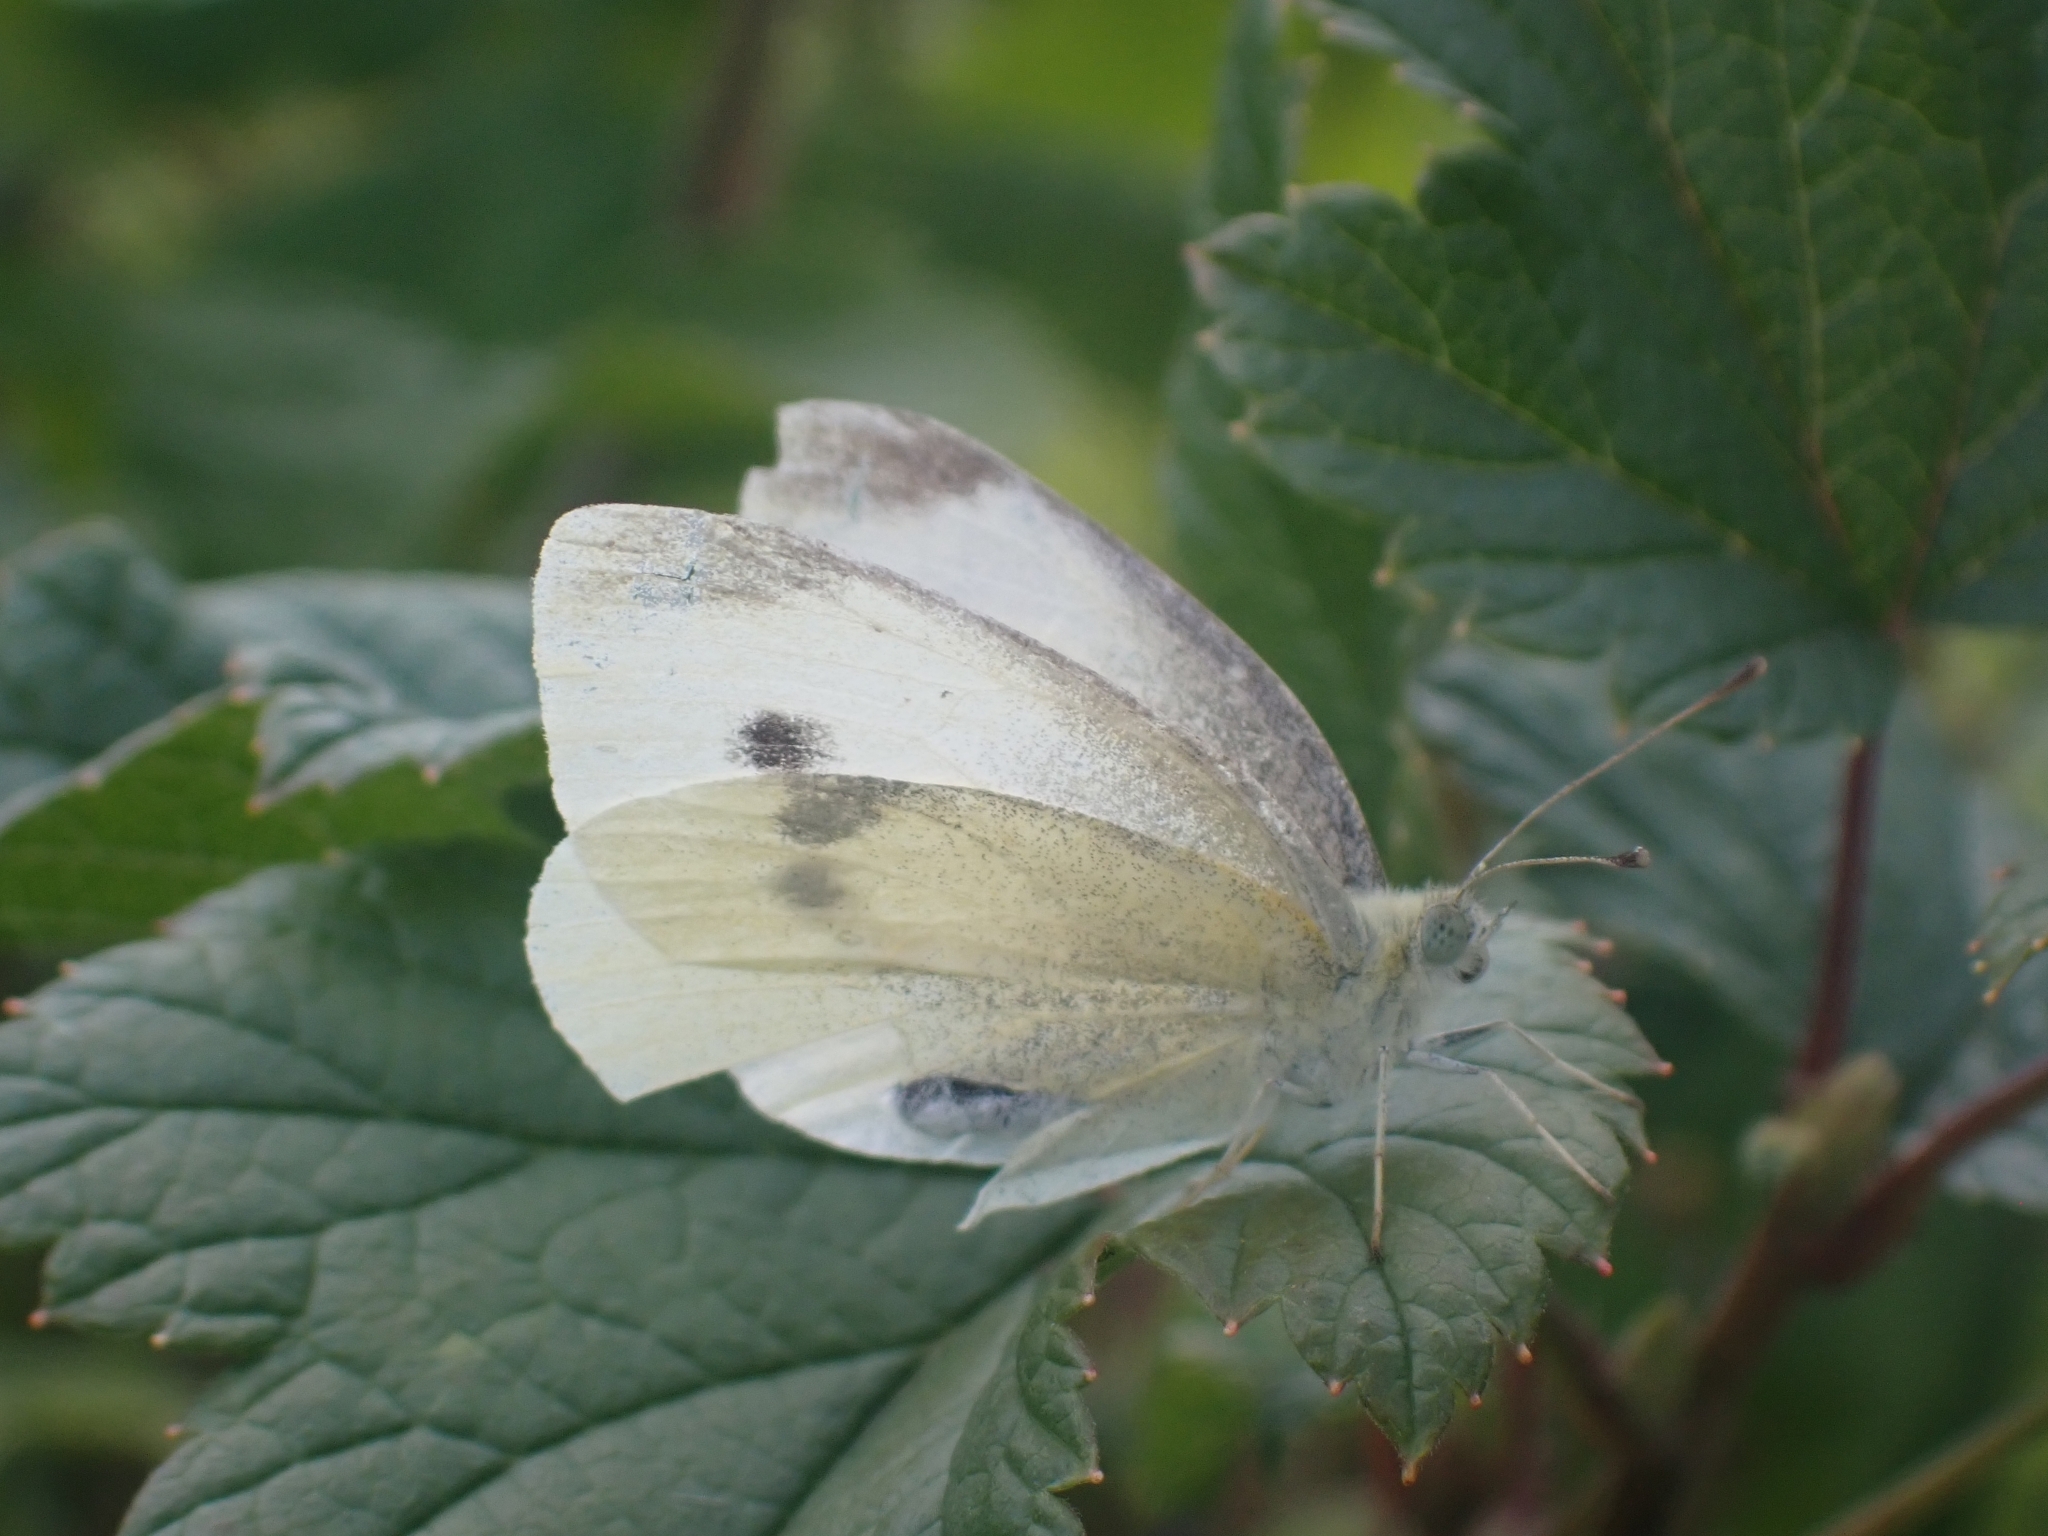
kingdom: Animalia
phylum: Arthropoda
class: Insecta
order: Lepidoptera
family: Pieridae
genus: Pieris
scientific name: Pieris rapae
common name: Small white
